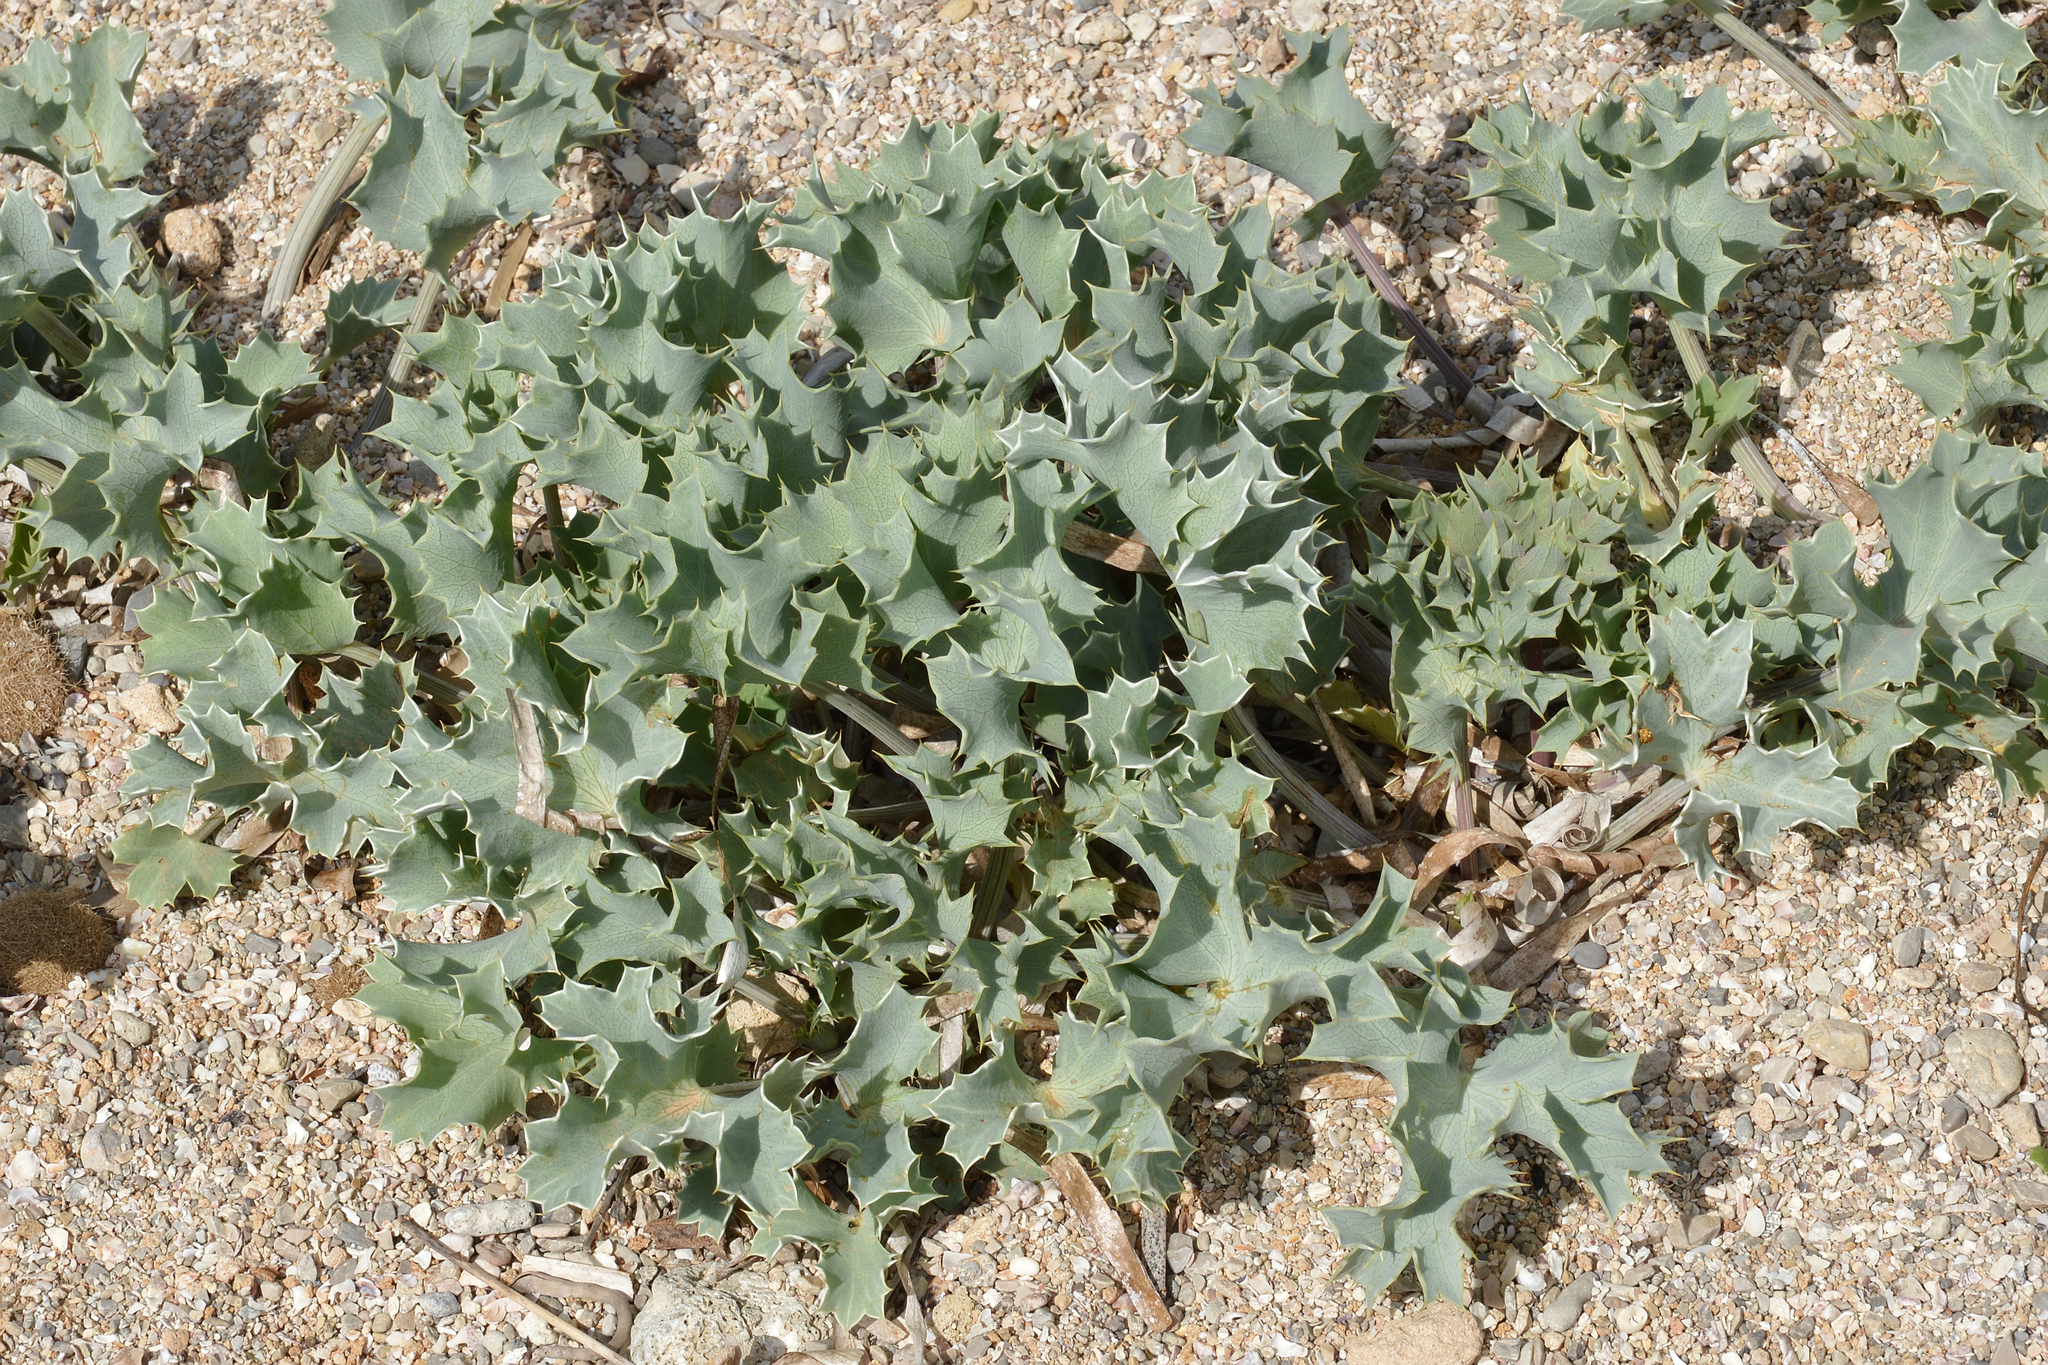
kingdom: Plantae
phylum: Tracheophyta
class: Magnoliopsida
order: Apiales
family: Apiaceae
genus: Eryngium
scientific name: Eryngium maritimum
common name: Sea-holly
